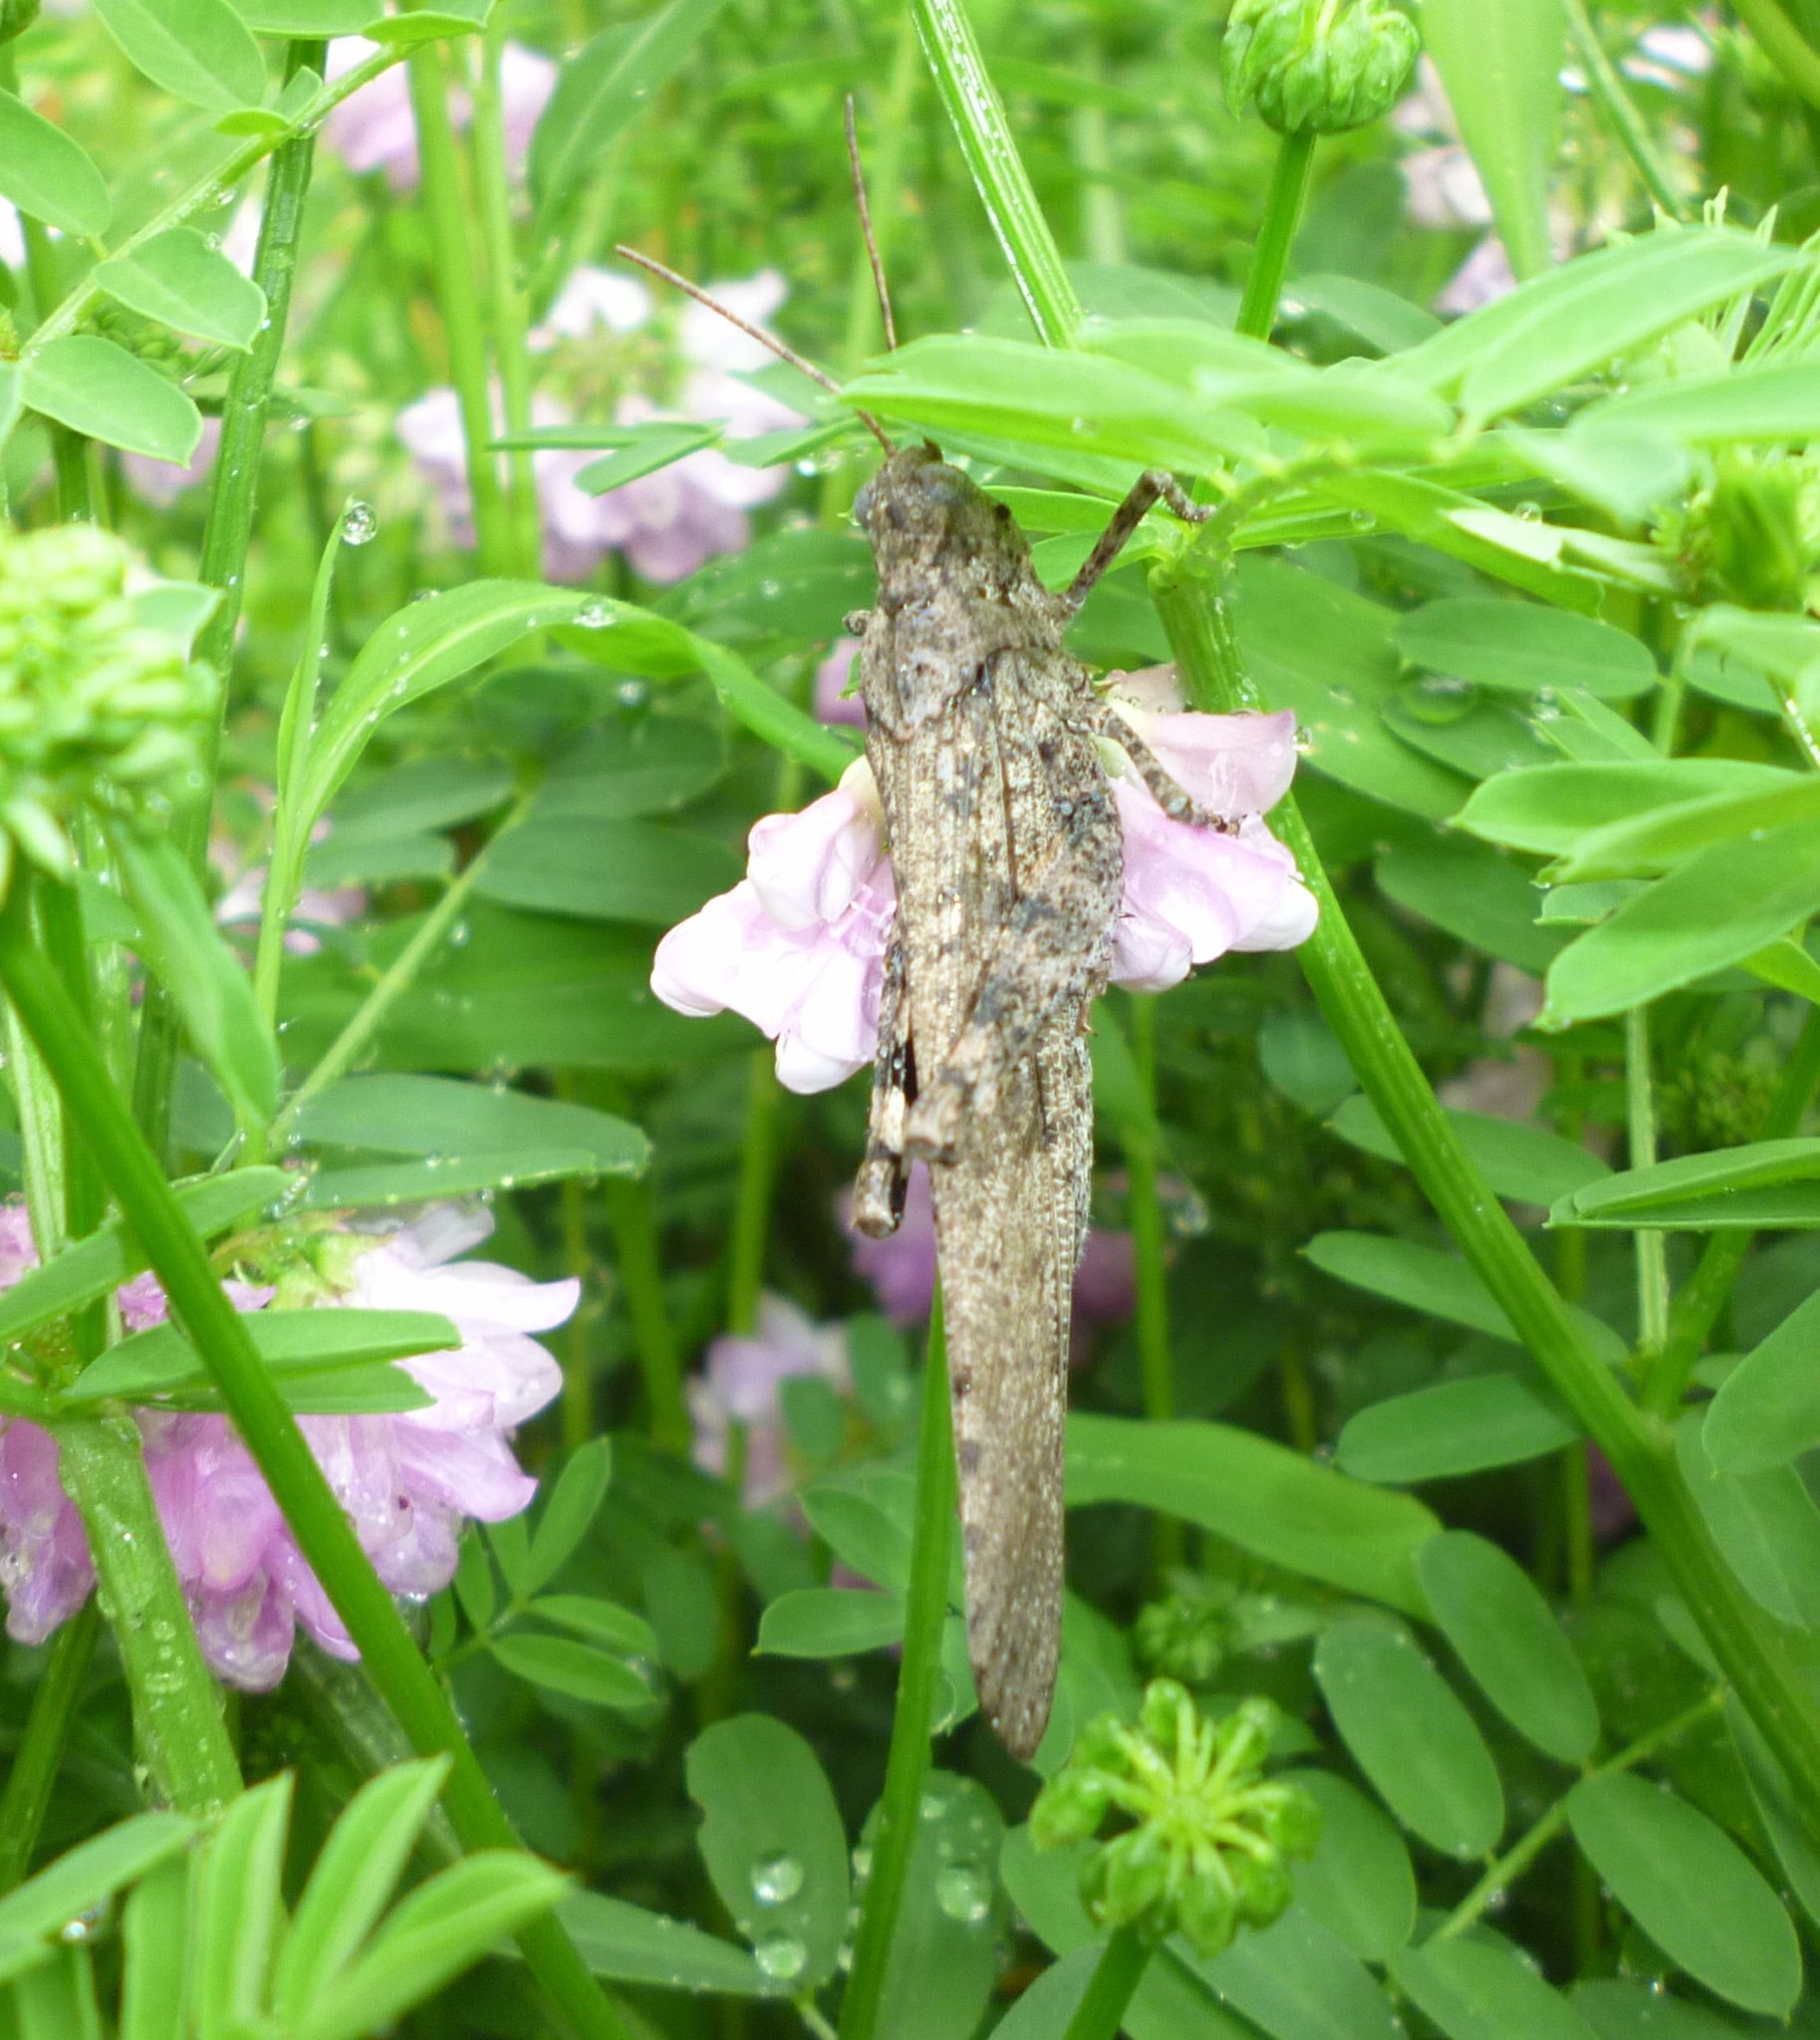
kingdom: Animalia
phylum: Arthropoda
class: Insecta
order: Orthoptera
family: Acrididae
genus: Dissosteira
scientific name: Dissosteira carolina
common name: Carolina grasshopper
